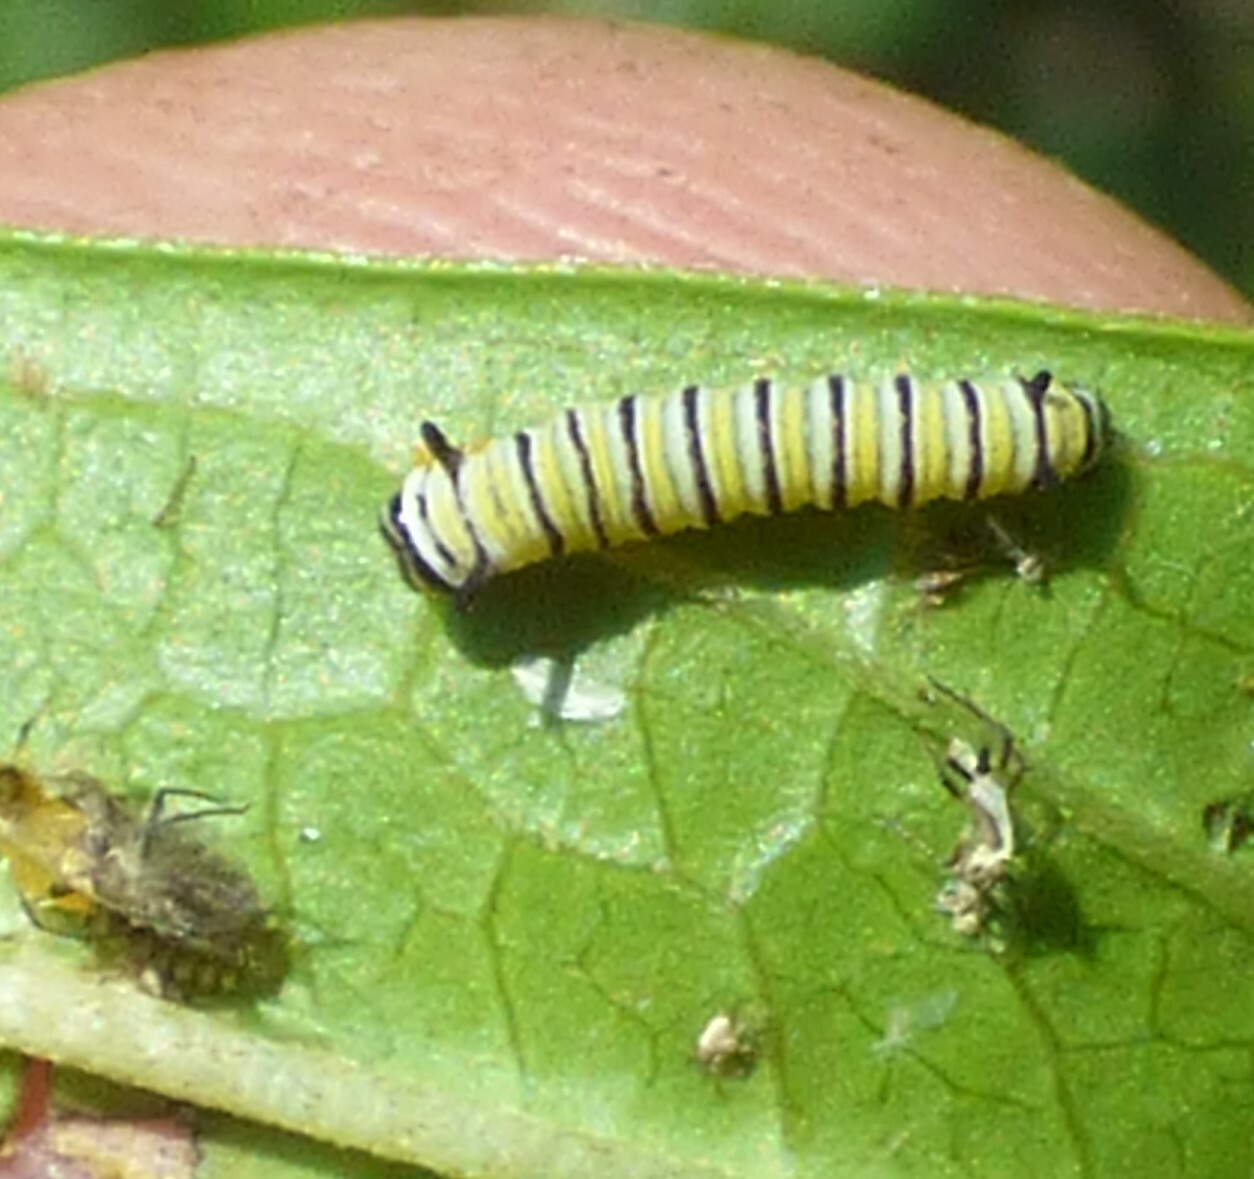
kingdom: Animalia
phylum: Arthropoda
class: Insecta
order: Lepidoptera
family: Nymphalidae
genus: Danaus
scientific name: Danaus plexippus
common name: Monarch
